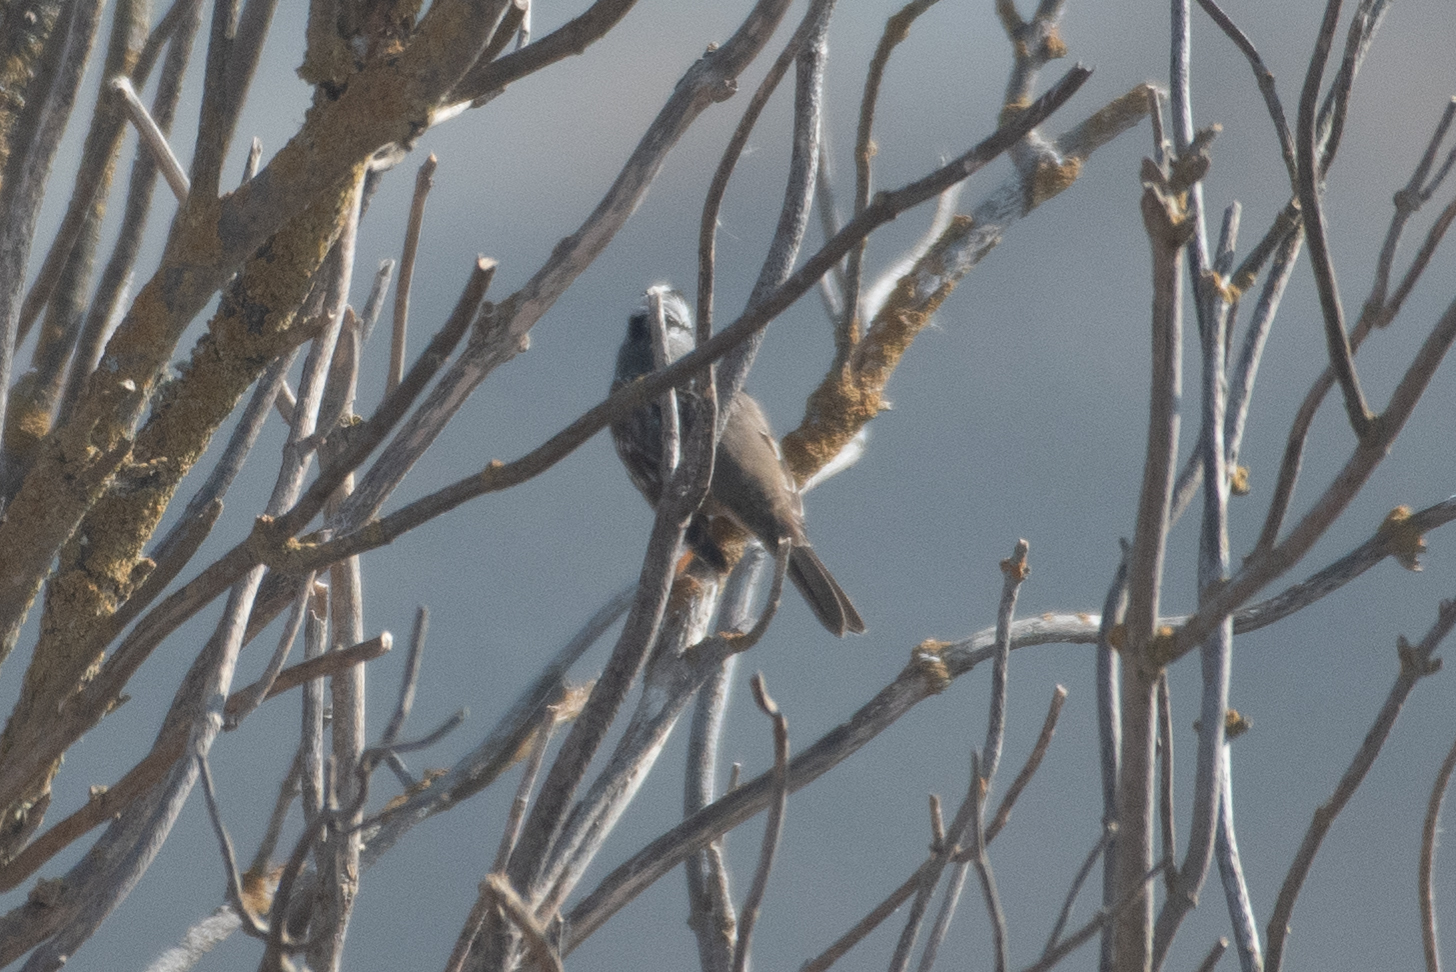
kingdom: Animalia
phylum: Chordata
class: Aves
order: Passeriformes
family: Passerellidae
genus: Zonotrichia
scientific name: Zonotrichia leucophrys
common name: White-crowned sparrow
